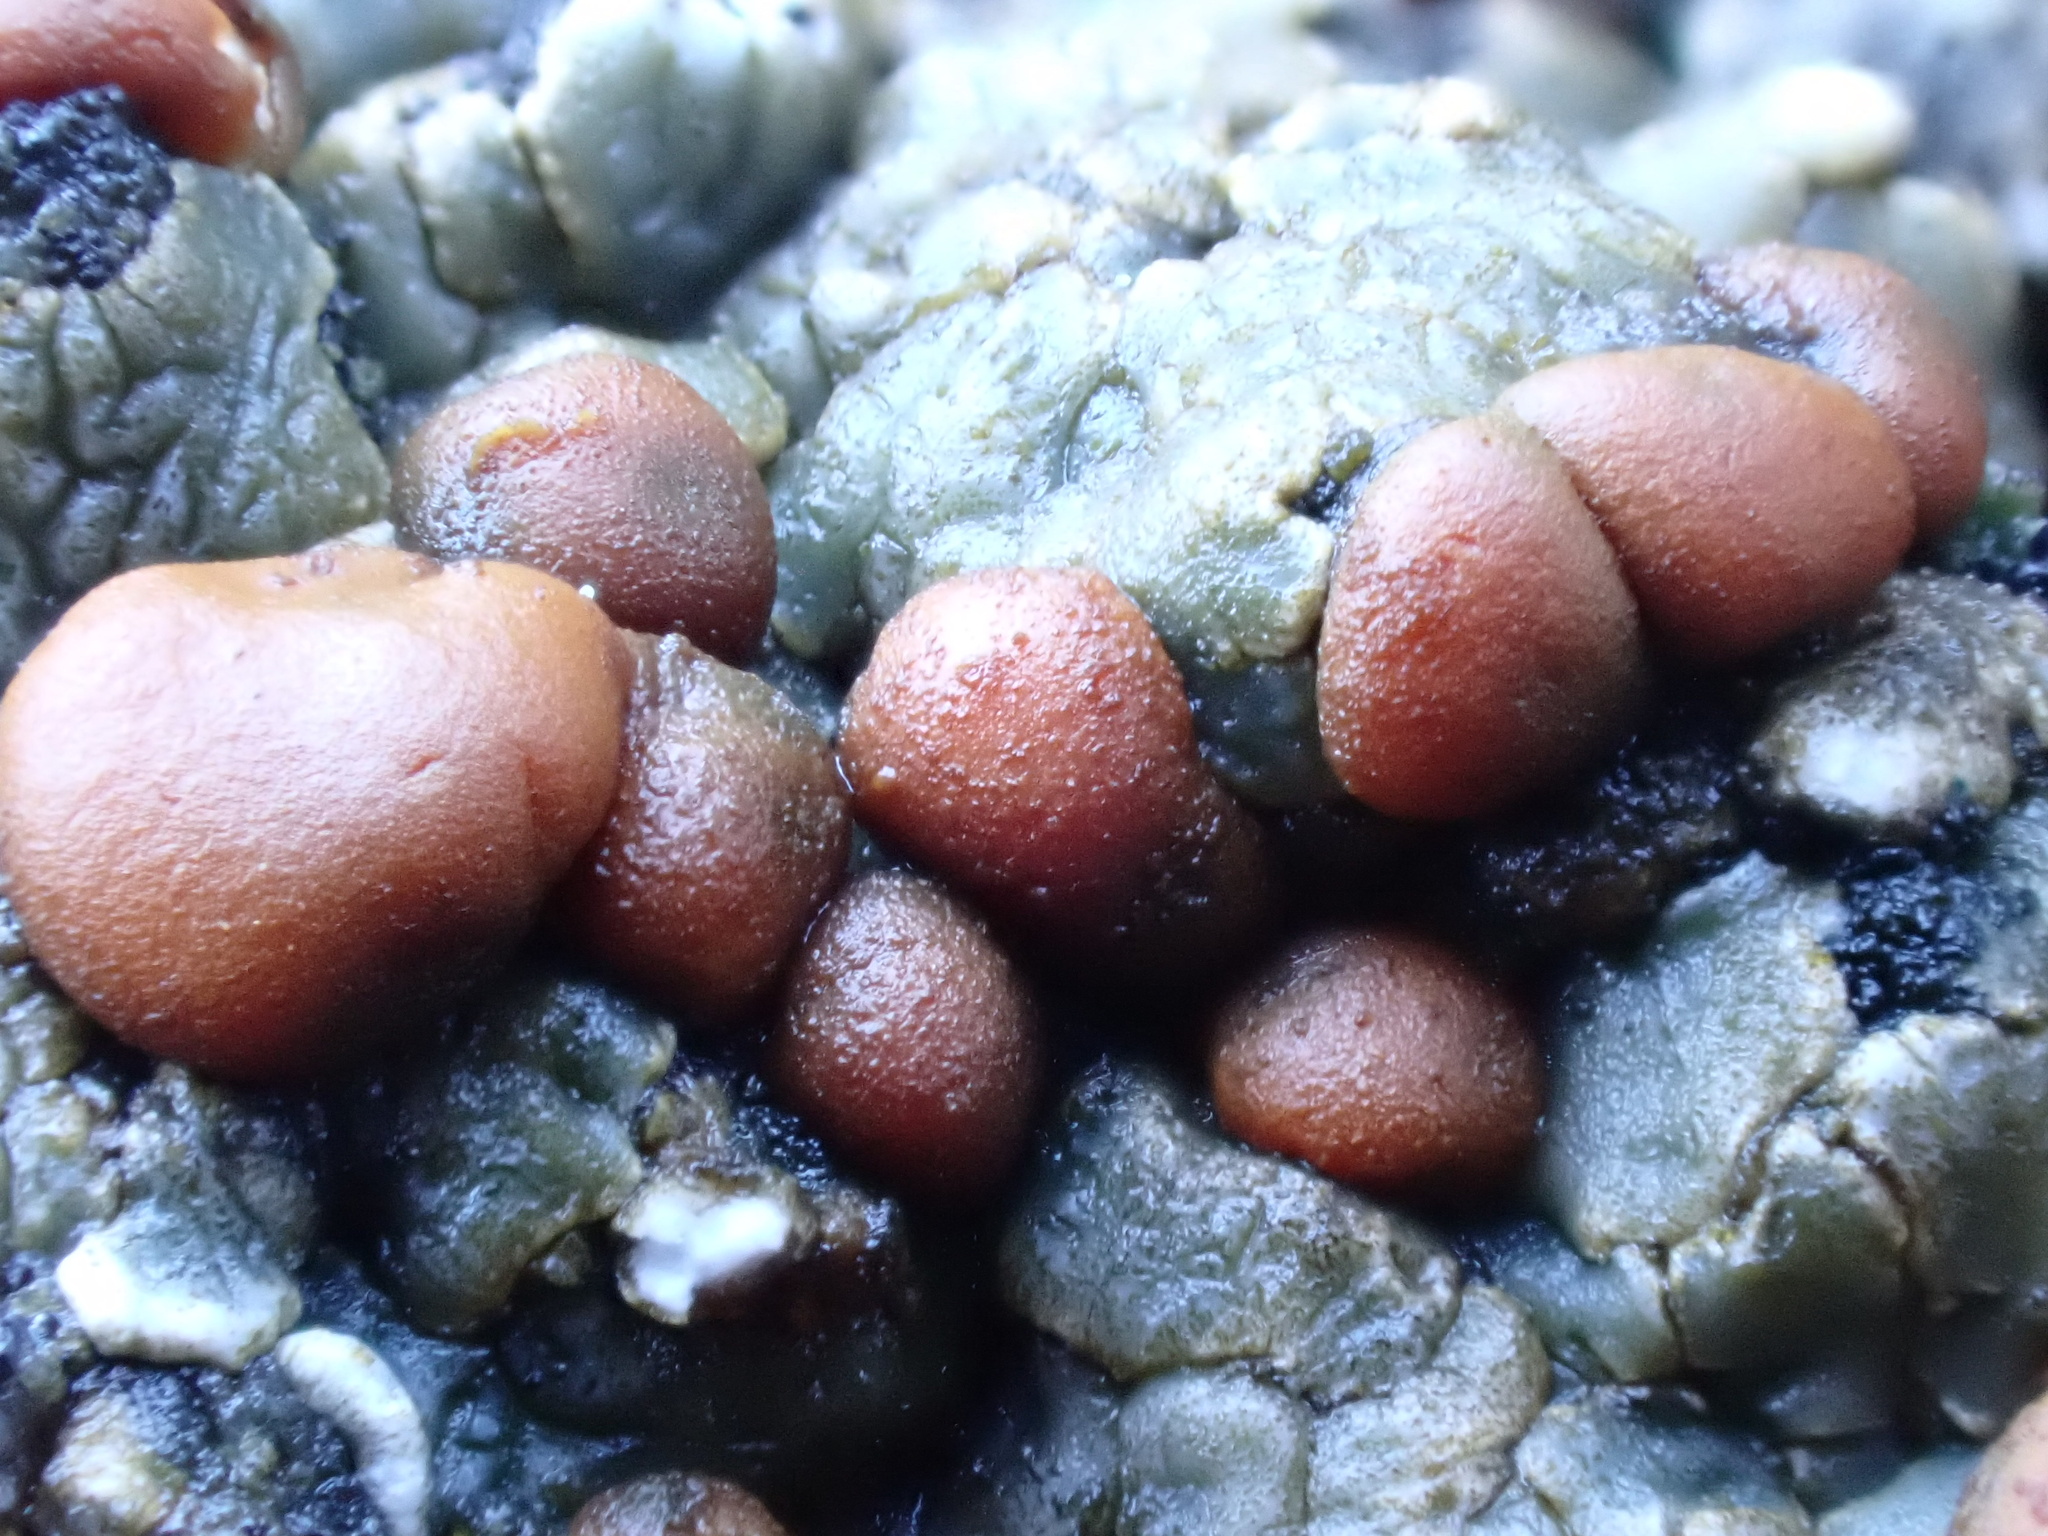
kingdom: Fungi
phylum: Ascomycota
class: Lecanoromycetes
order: Lecanorales
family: Psoraceae
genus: Psora
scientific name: Psora testacea
